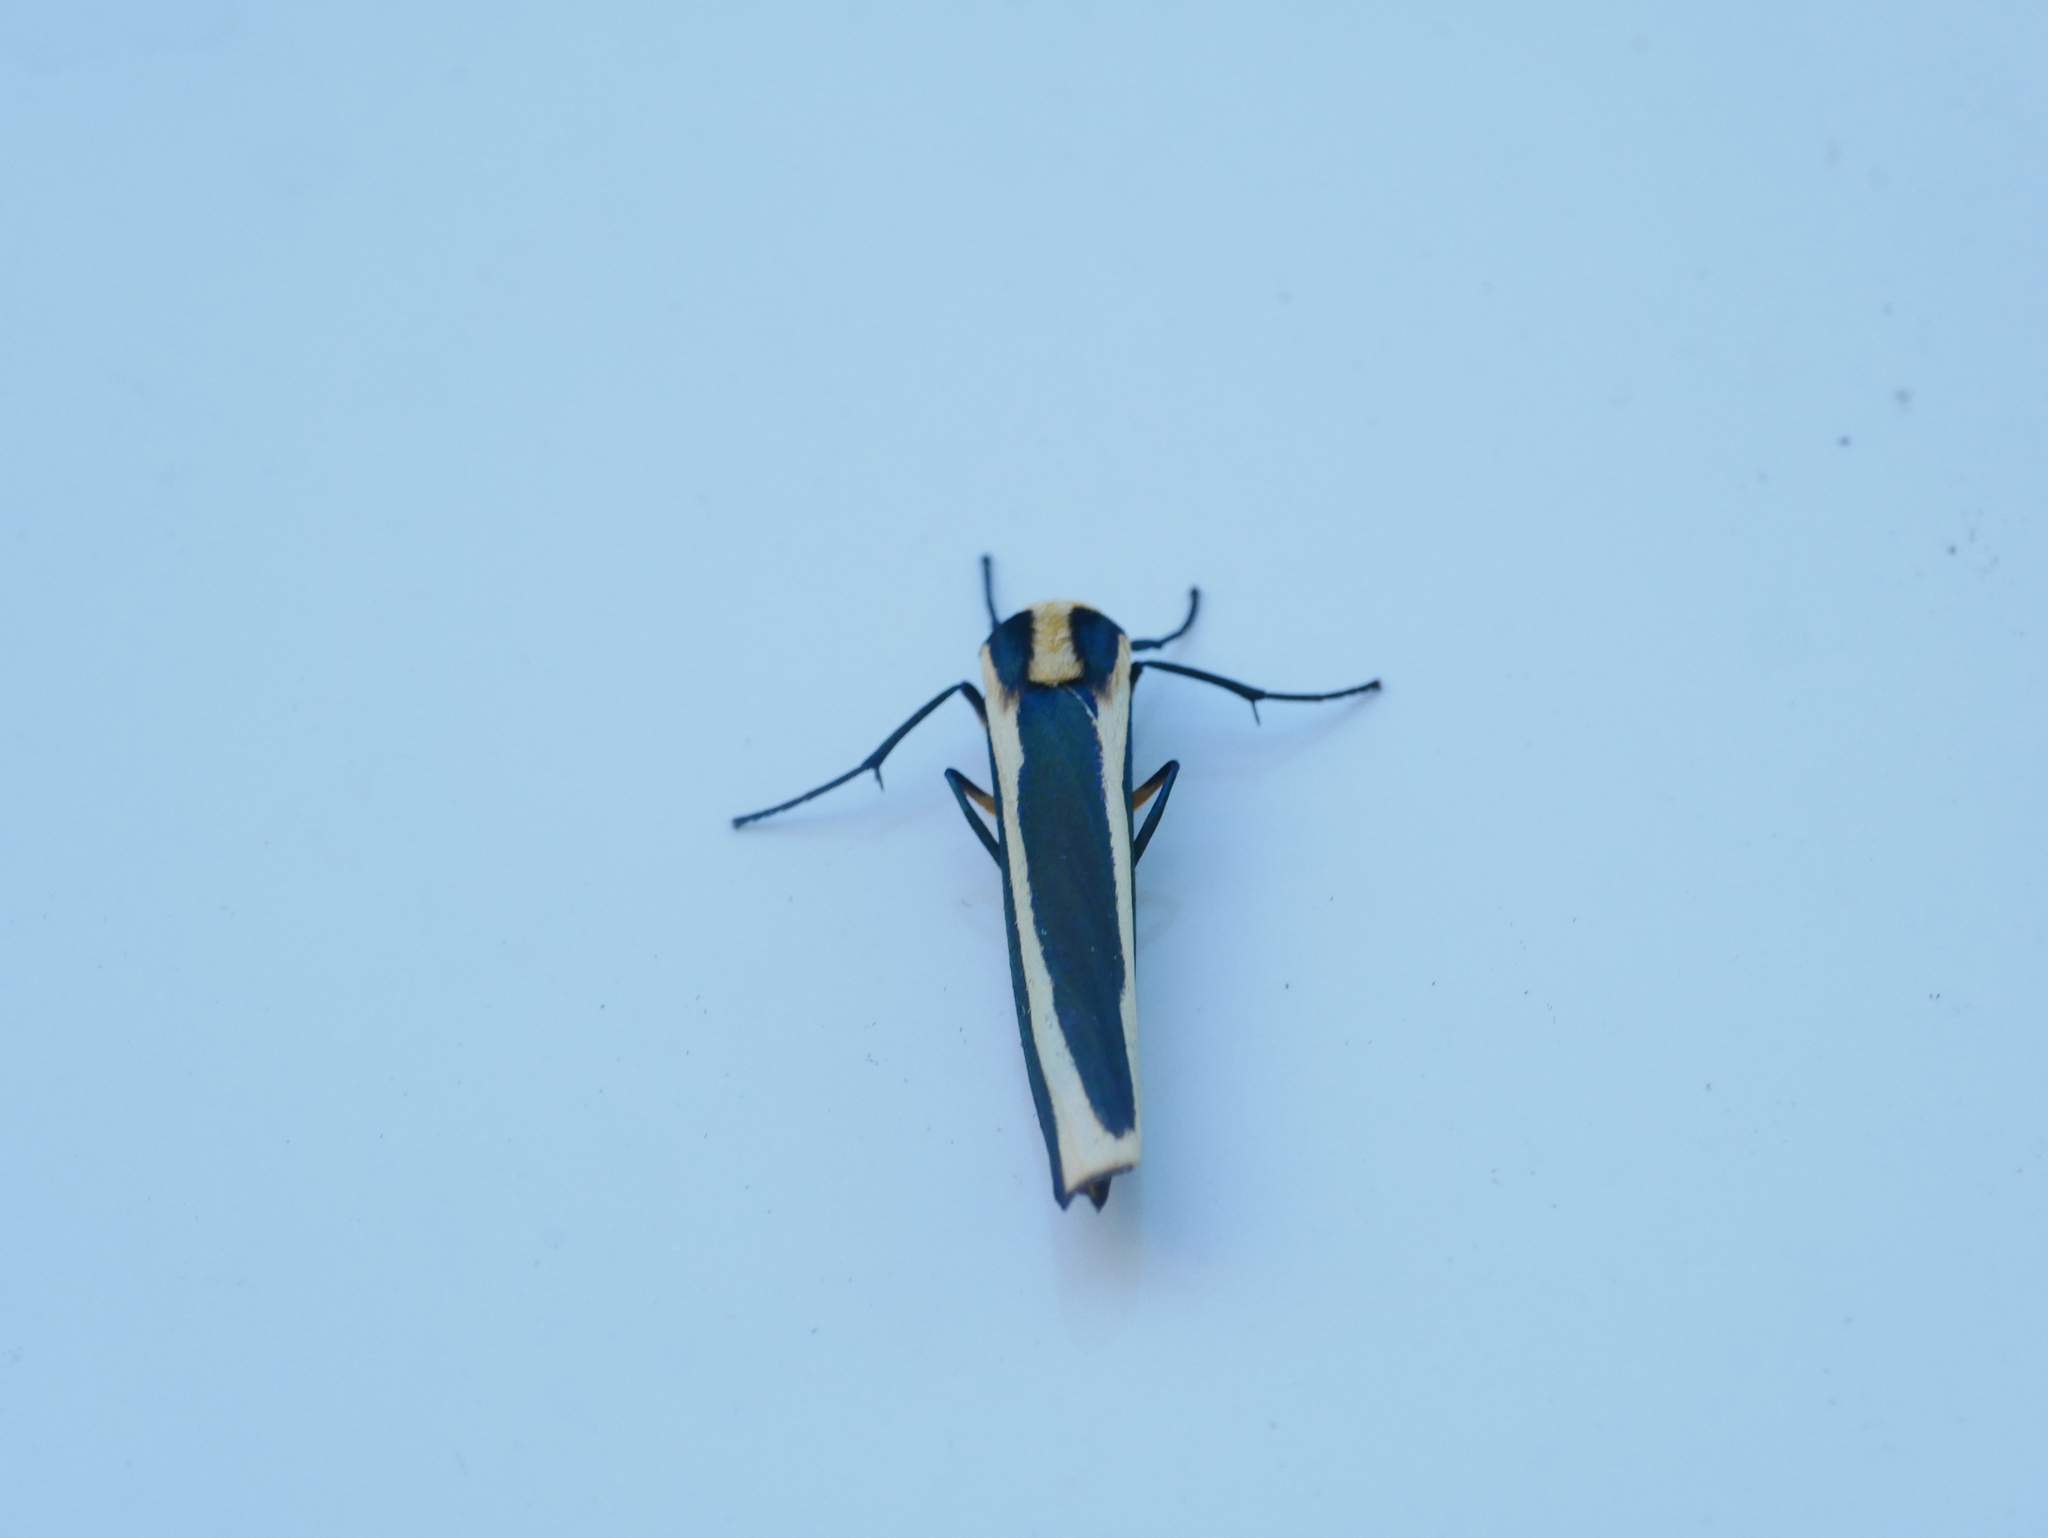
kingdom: Animalia
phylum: Arthropoda
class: Insecta
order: Lepidoptera
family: Erebidae
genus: Chrysorabdia
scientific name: Chrysorabdia vilemani
